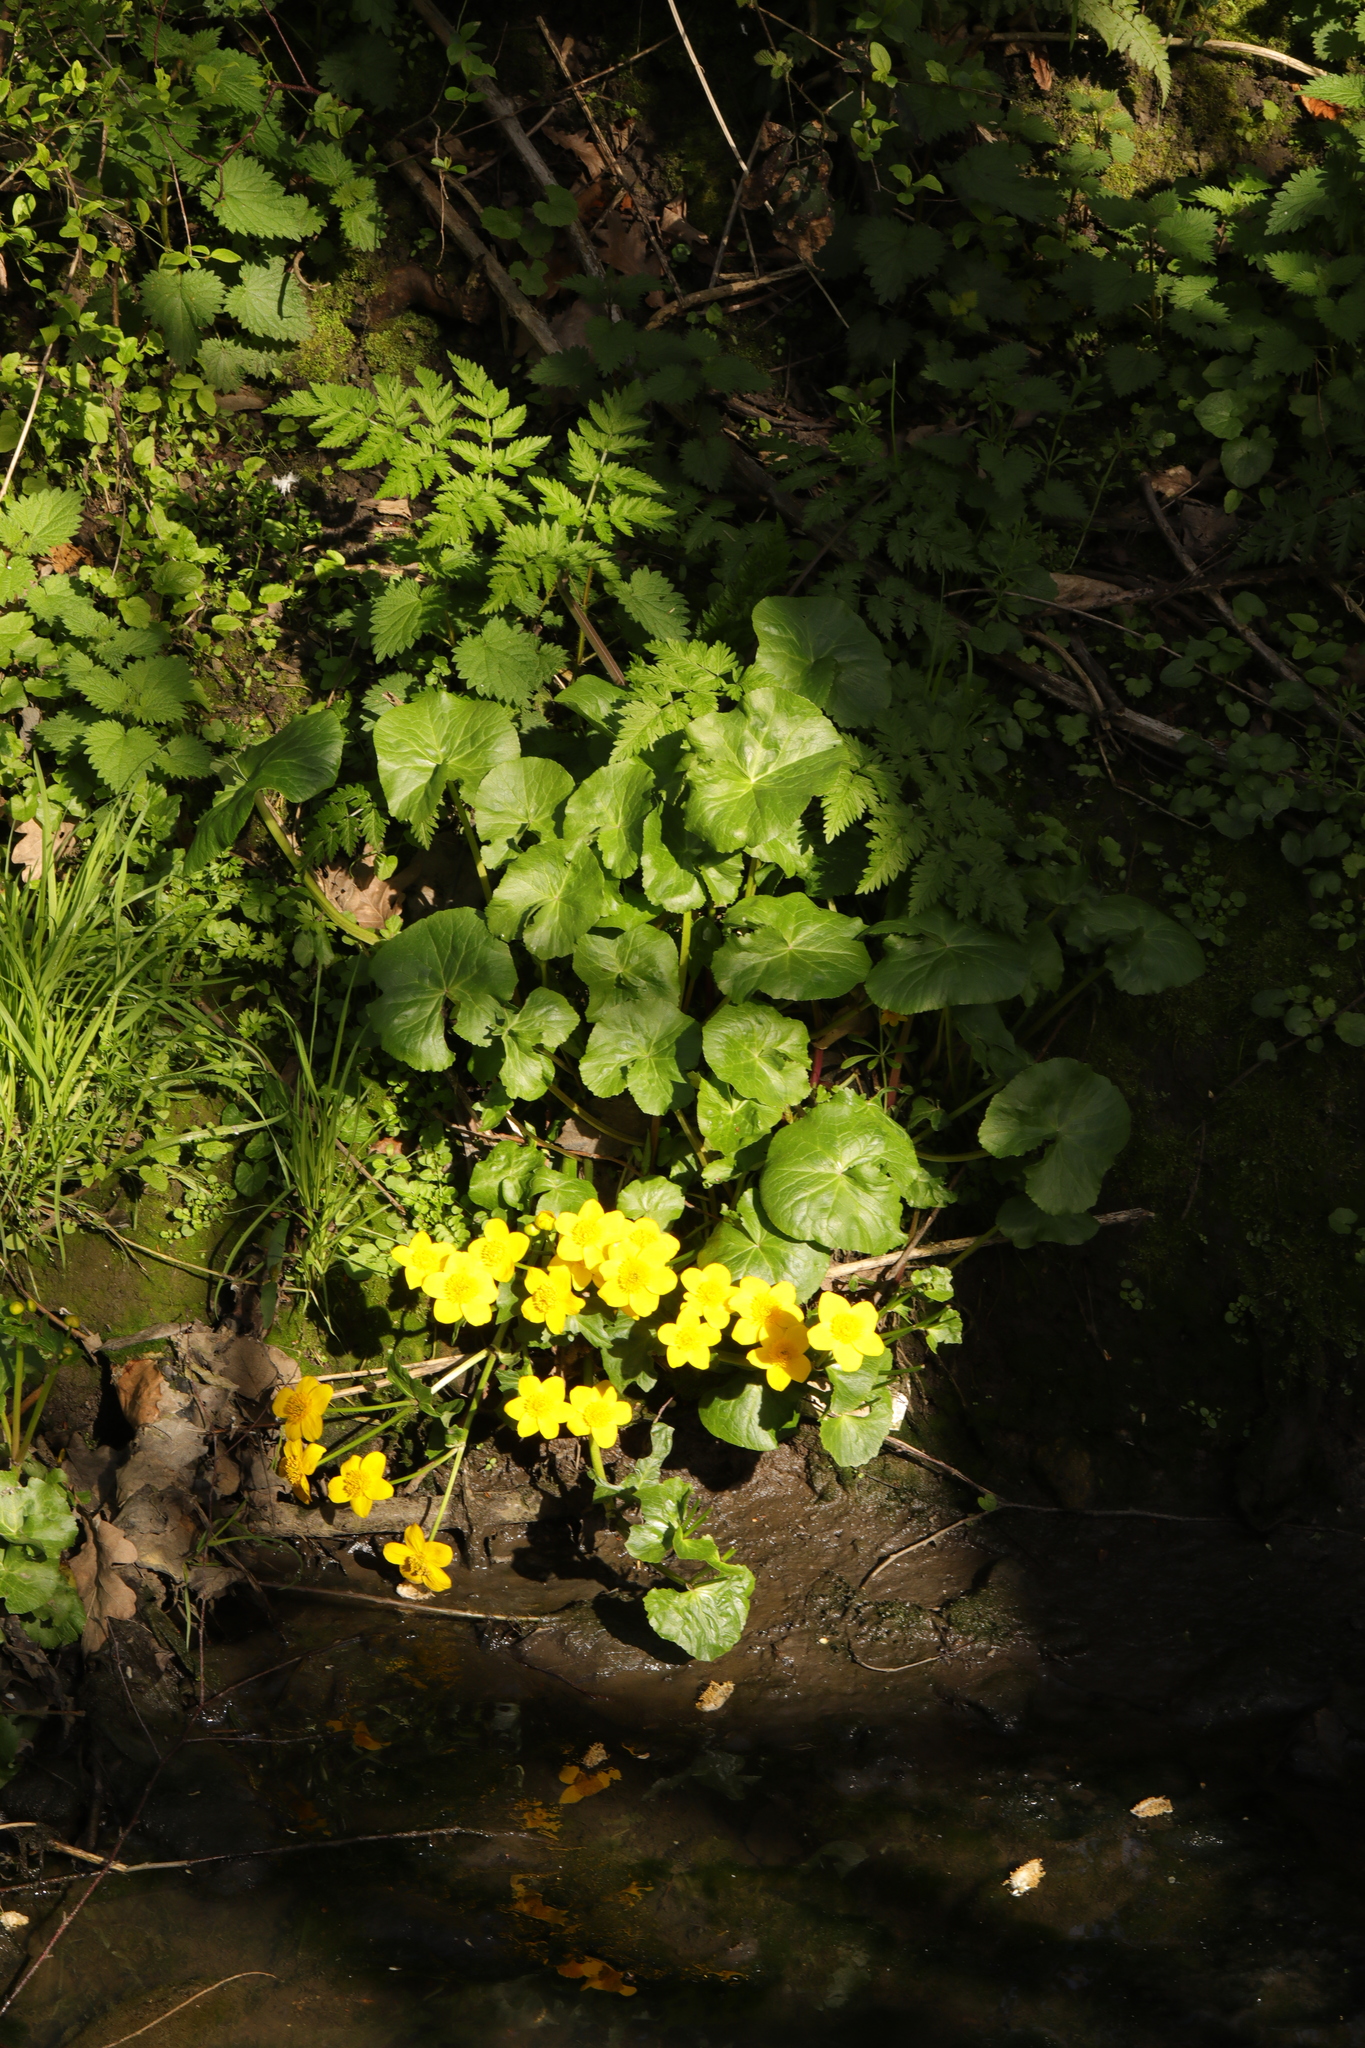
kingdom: Plantae
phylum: Tracheophyta
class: Magnoliopsida
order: Ranunculales
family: Ranunculaceae
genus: Caltha
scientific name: Caltha palustris
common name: Marsh marigold
